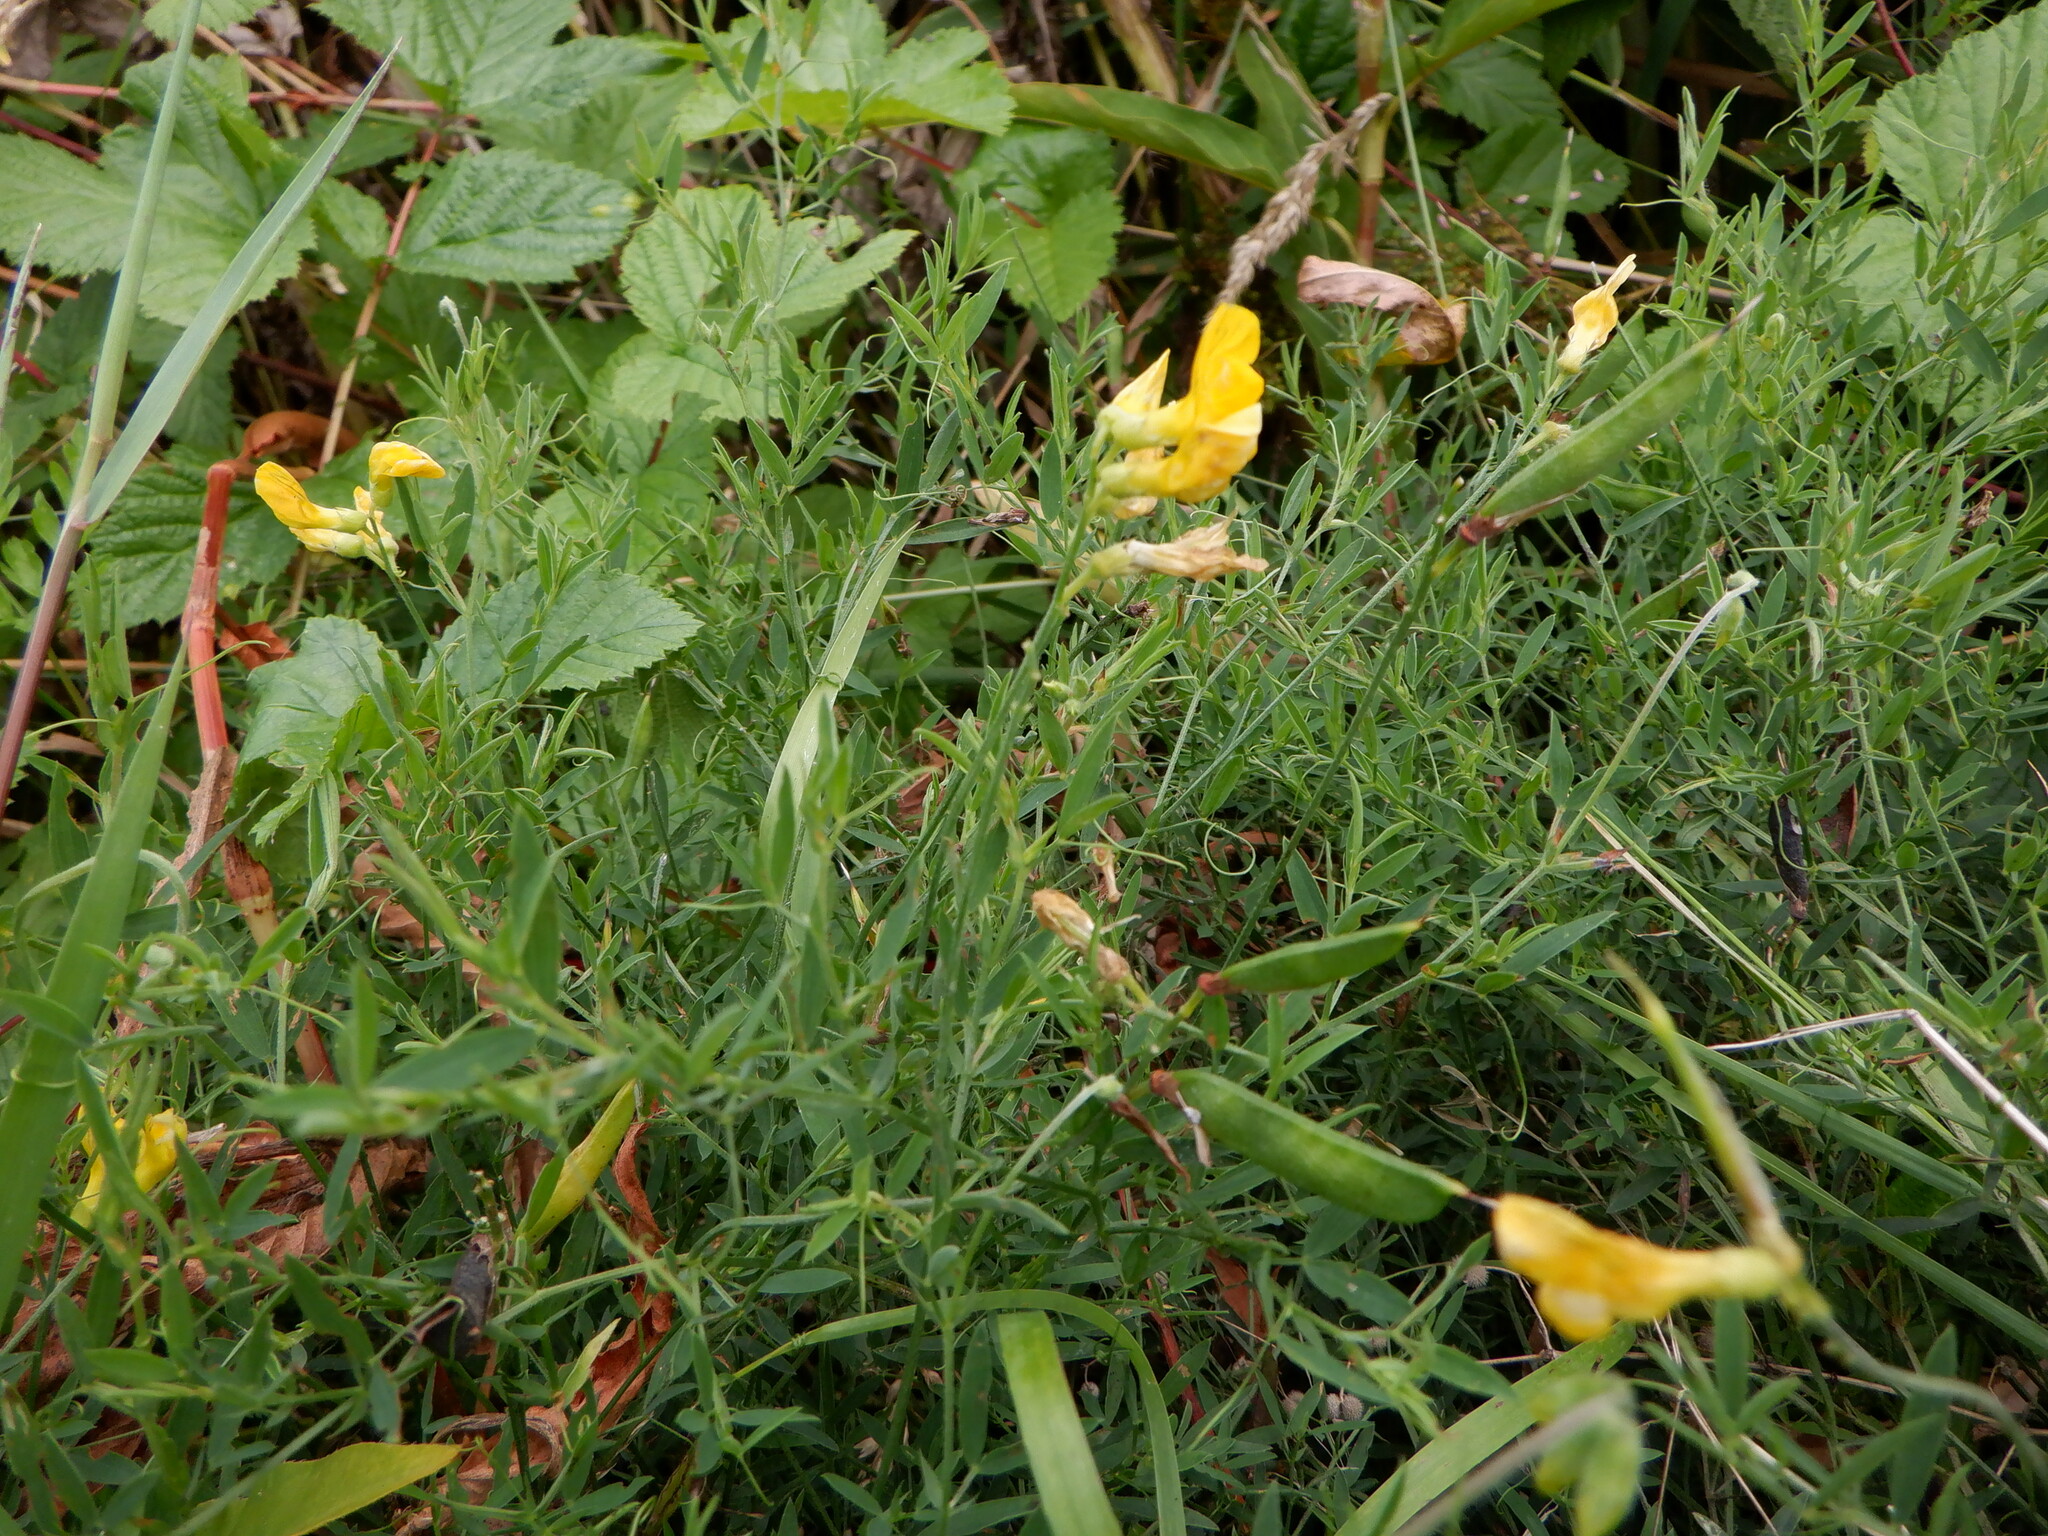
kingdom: Plantae
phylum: Tracheophyta
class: Magnoliopsida
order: Fabales
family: Fabaceae
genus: Lathyrus
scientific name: Lathyrus pratensis
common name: Meadow vetchling
